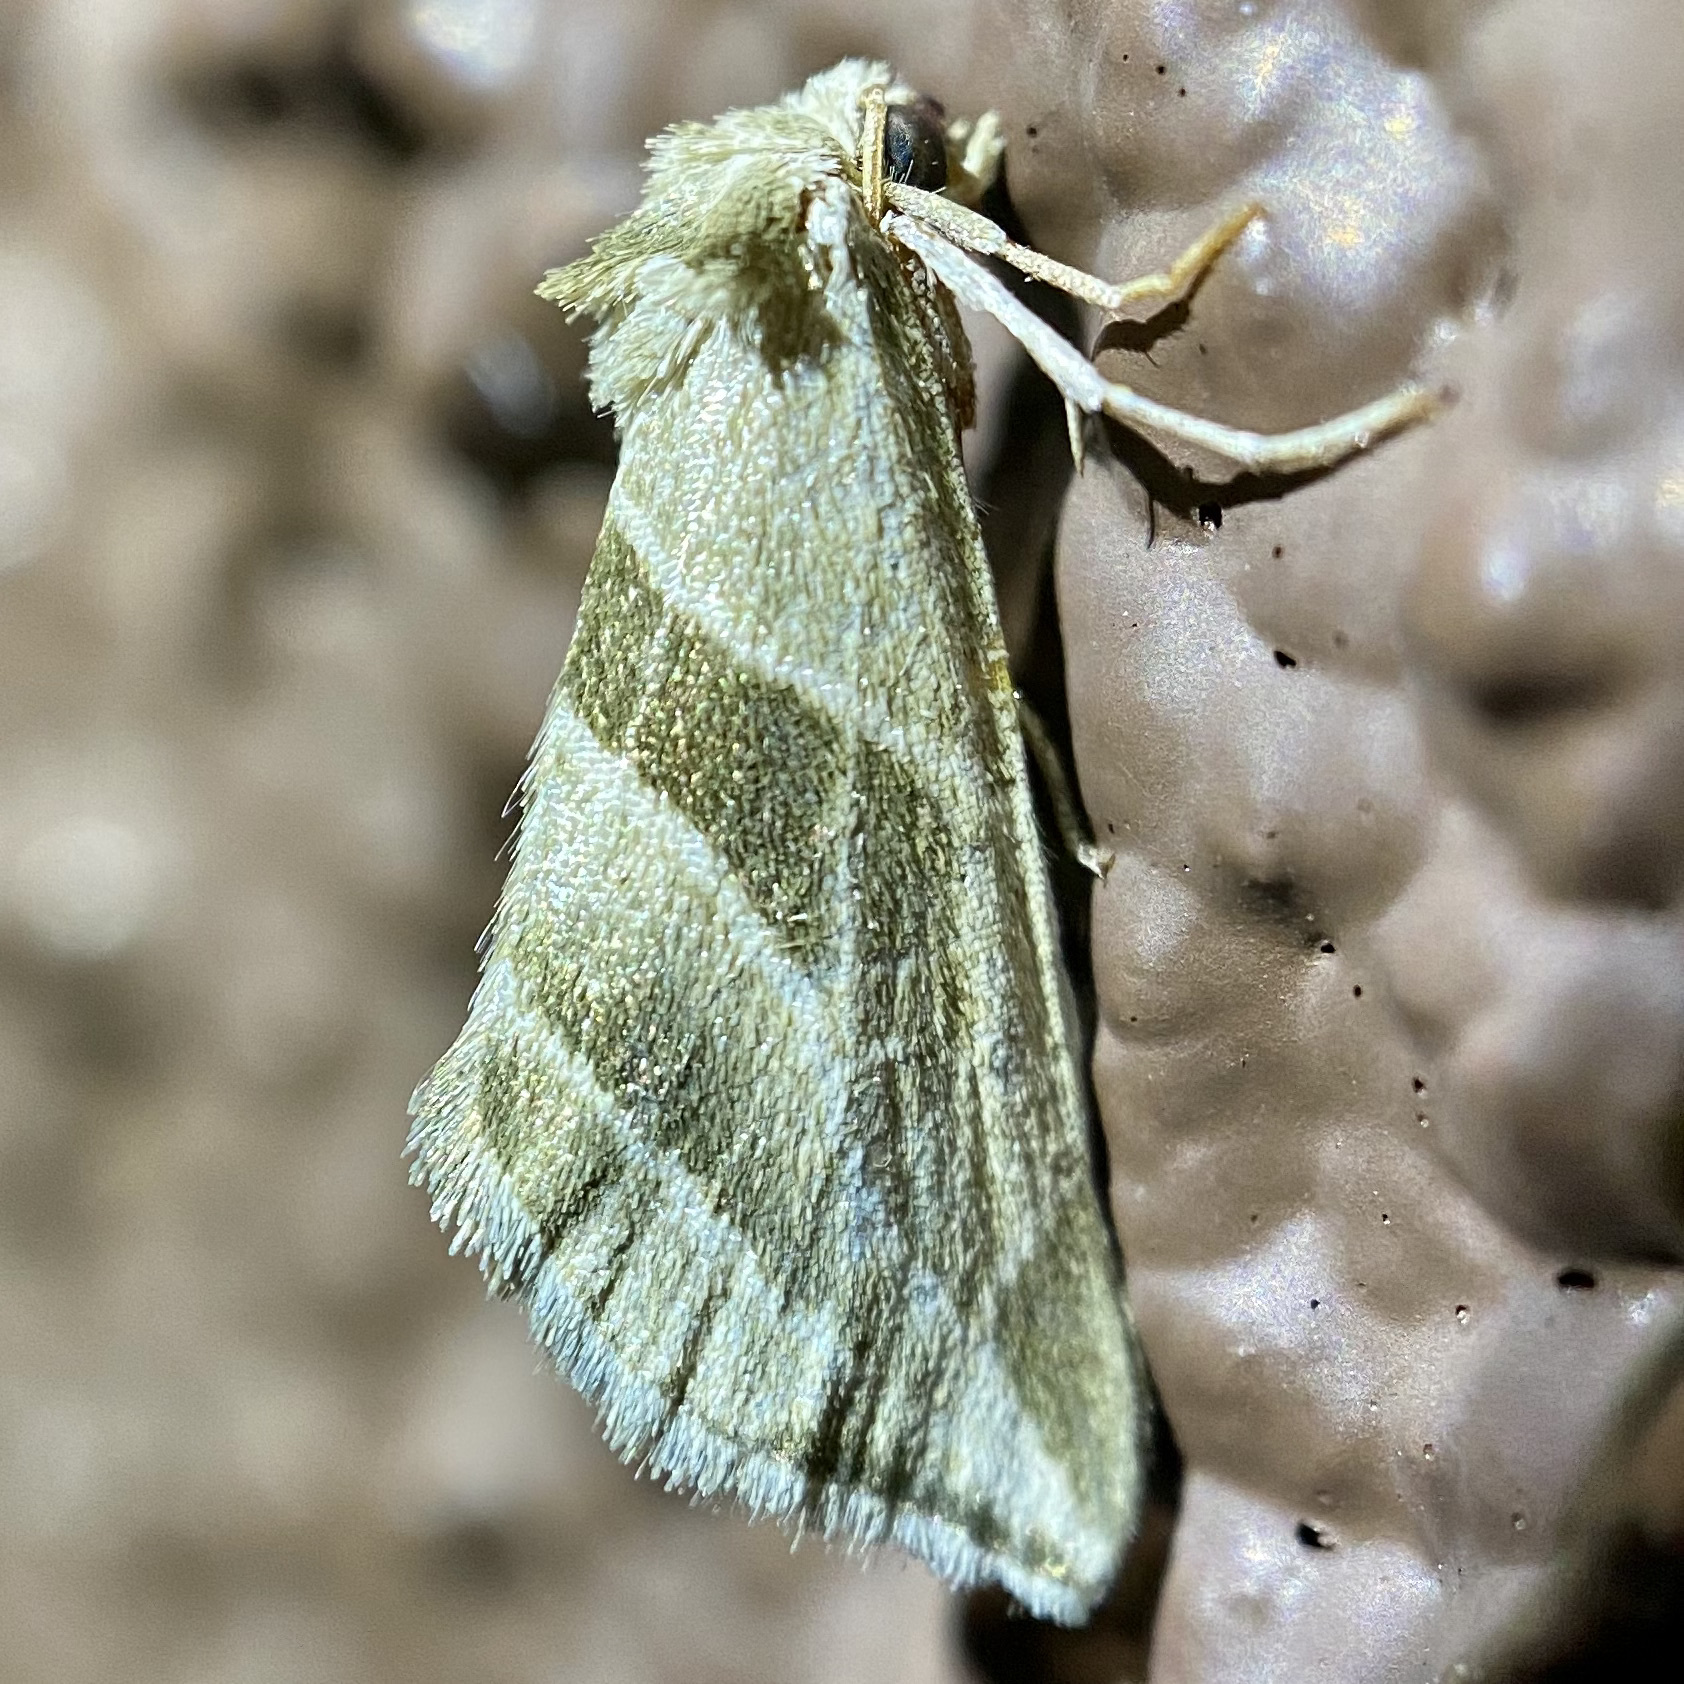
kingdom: Animalia
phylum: Arthropoda
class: Insecta
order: Lepidoptera
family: Noctuidae
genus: Plagiomimicus
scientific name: Plagiomimicus tepperi
